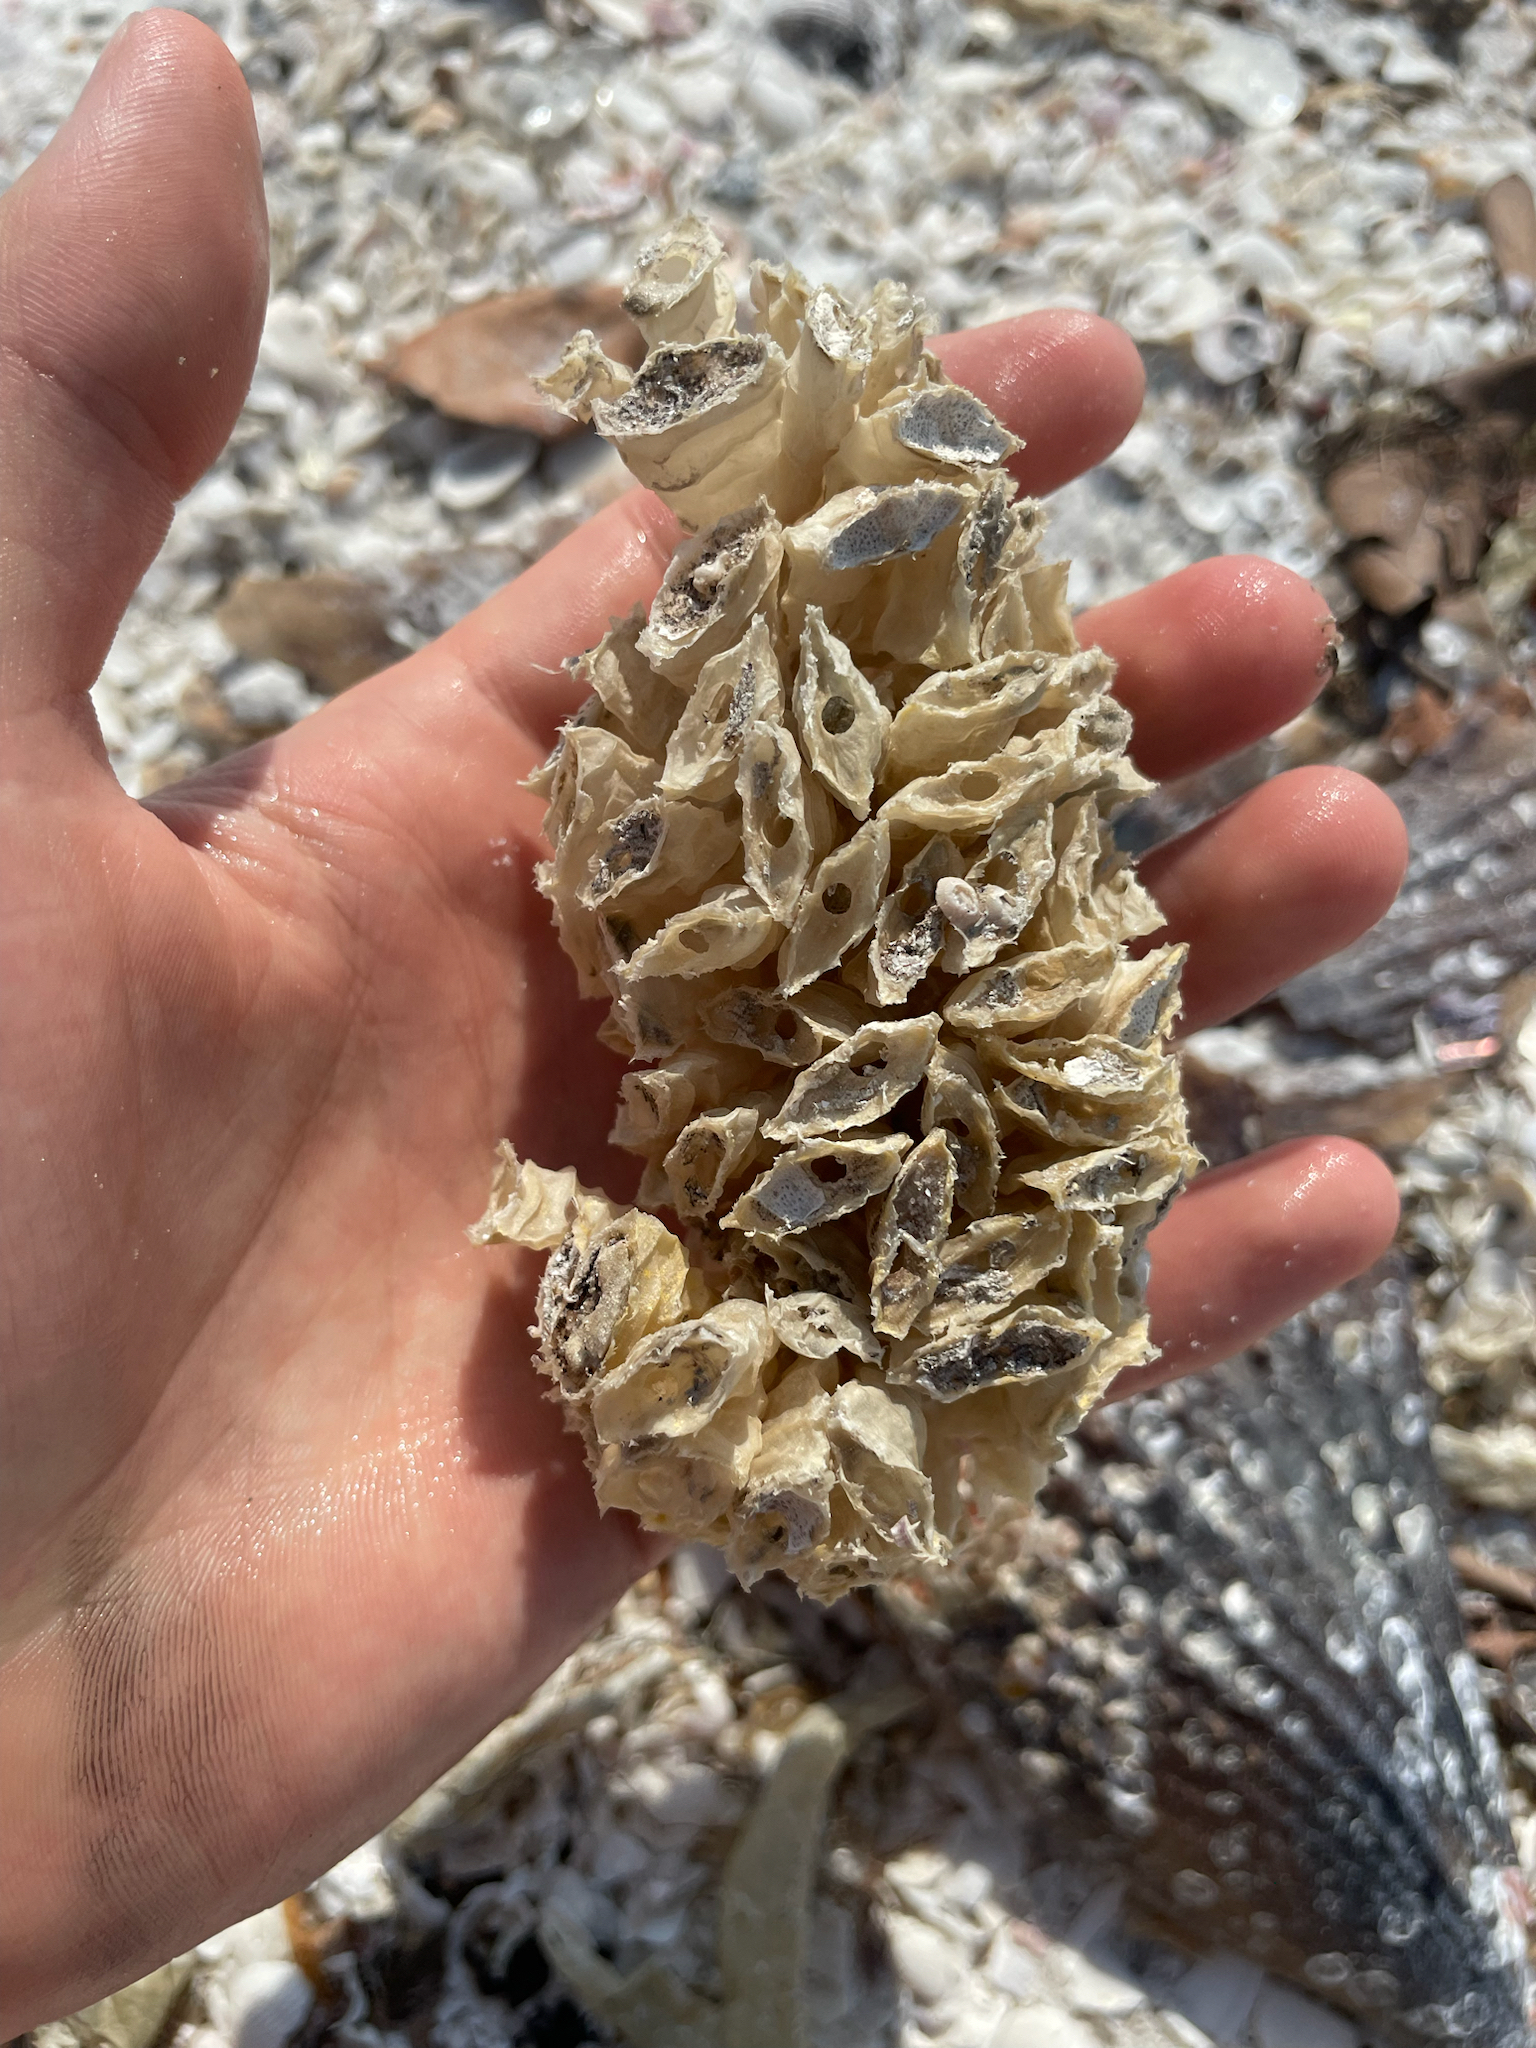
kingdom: Animalia
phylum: Mollusca
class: Gastropoda
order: Neogastropoda
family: Fasciolariidae
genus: Triplofusus
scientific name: Triplofusus giganteus
